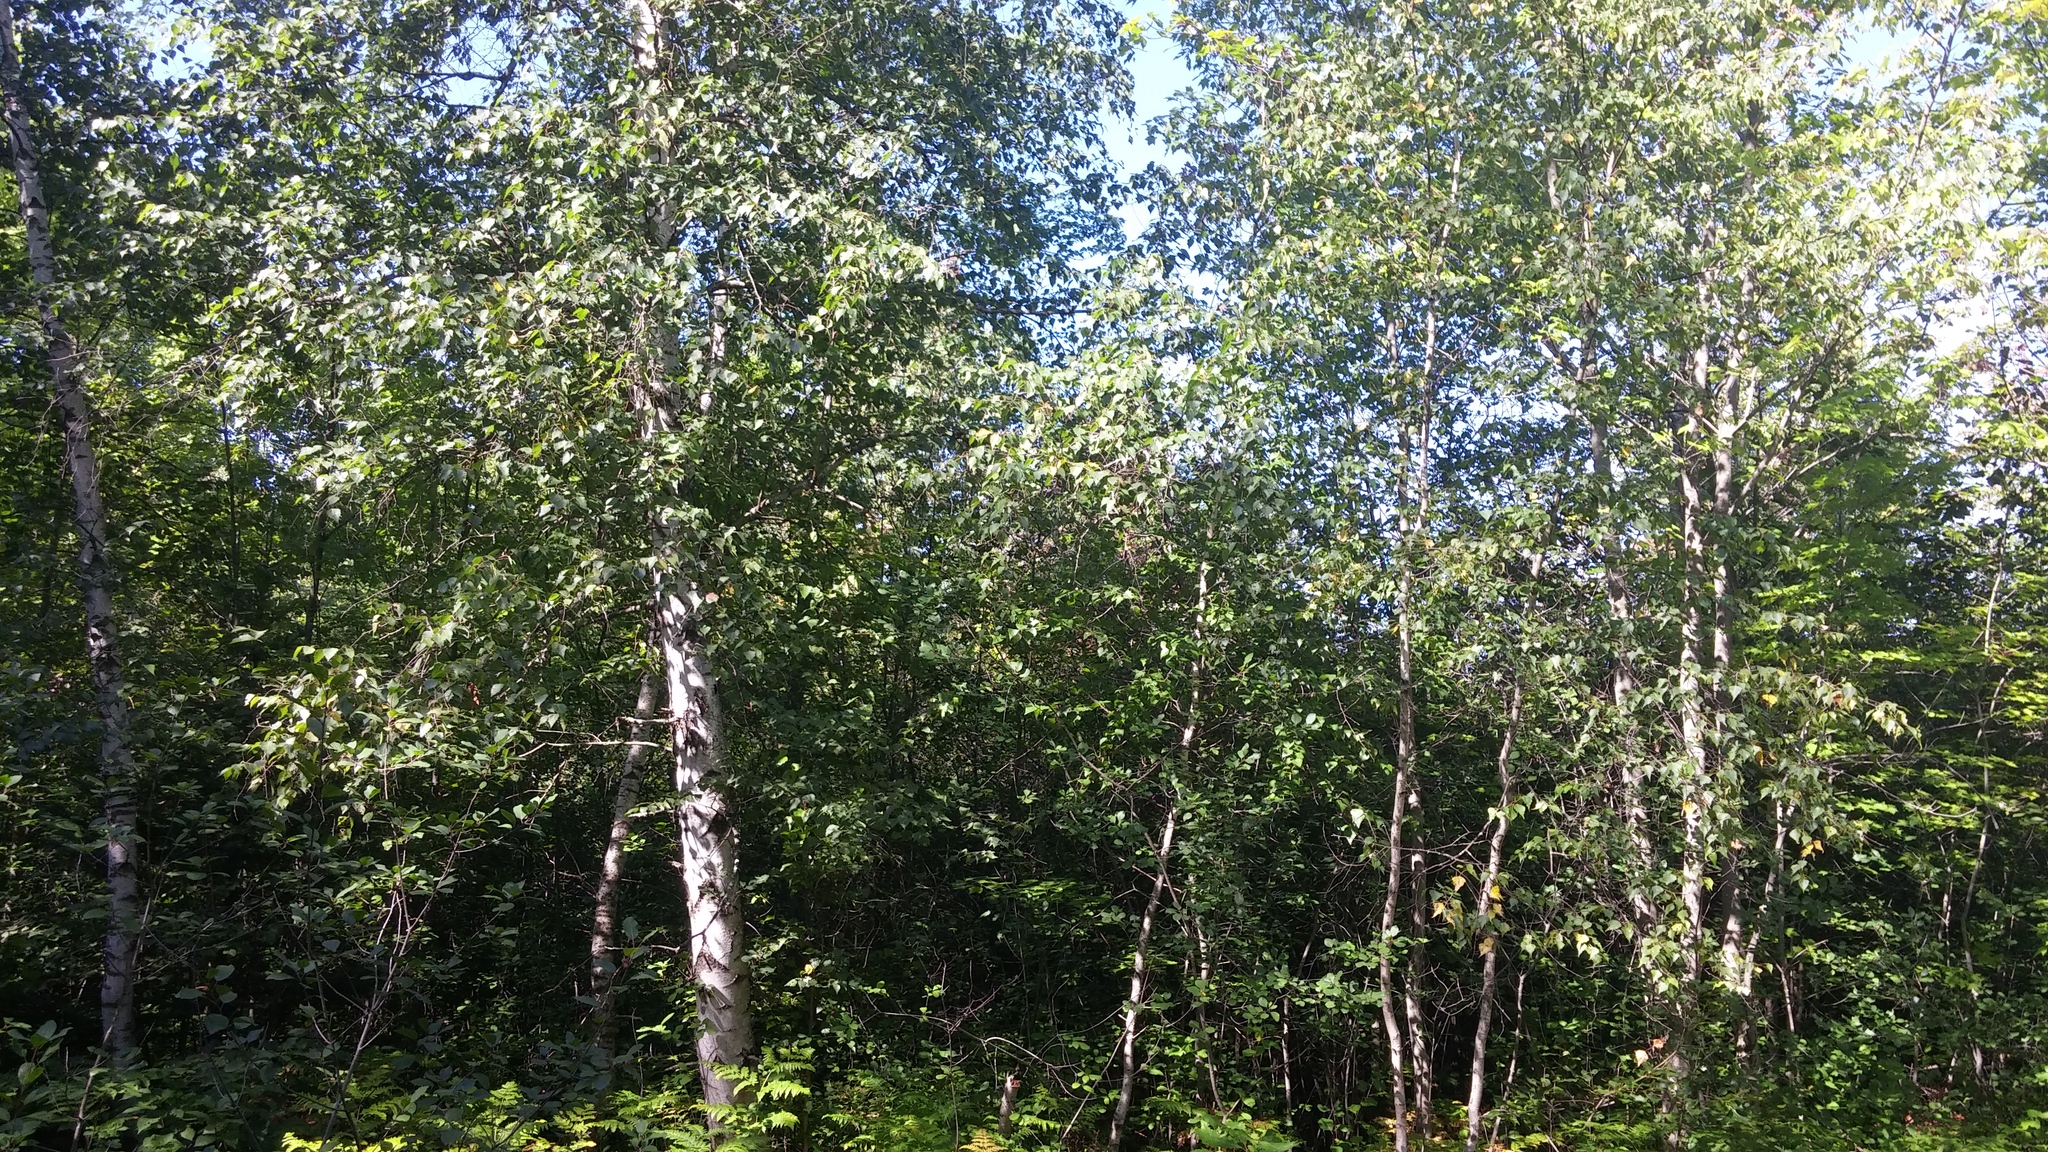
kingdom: Plantae
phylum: Tracheophyta
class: Magnoliopsida
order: Fagales
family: Betulaceae
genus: Betula
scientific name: Betula populifolia
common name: Fire birch
